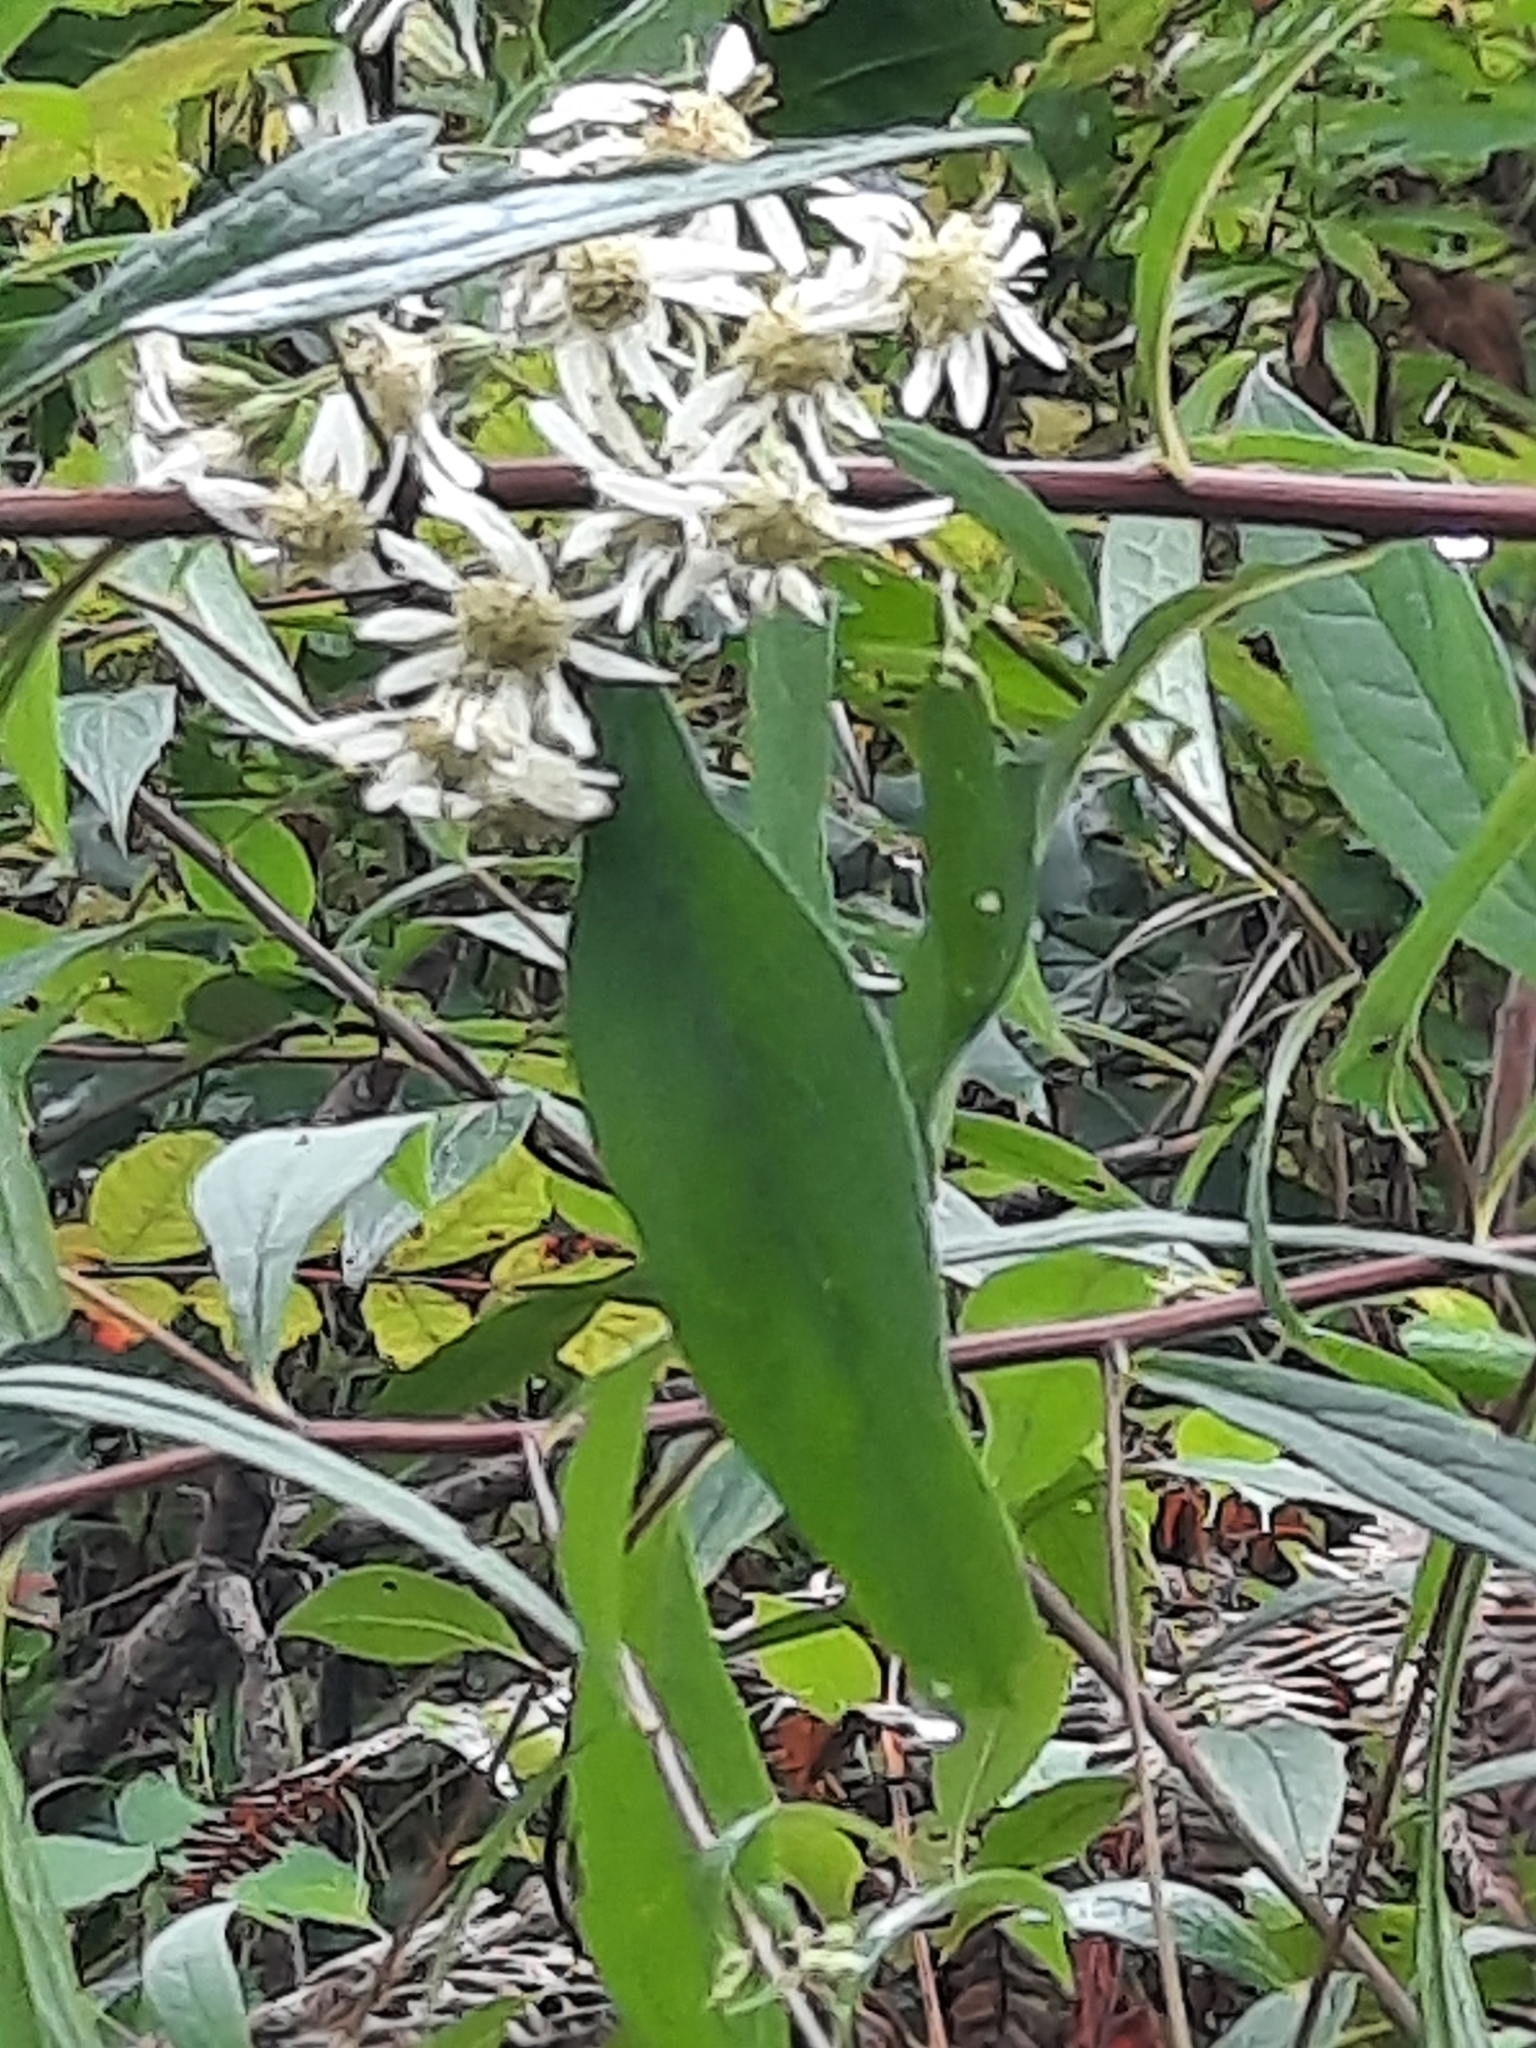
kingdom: Plantae
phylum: Tracheophyta
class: Magnoliopsida
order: Asterales
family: Asteraceae
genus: Doellingeria
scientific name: Doellingeria umbellata
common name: Flat-top white aster
